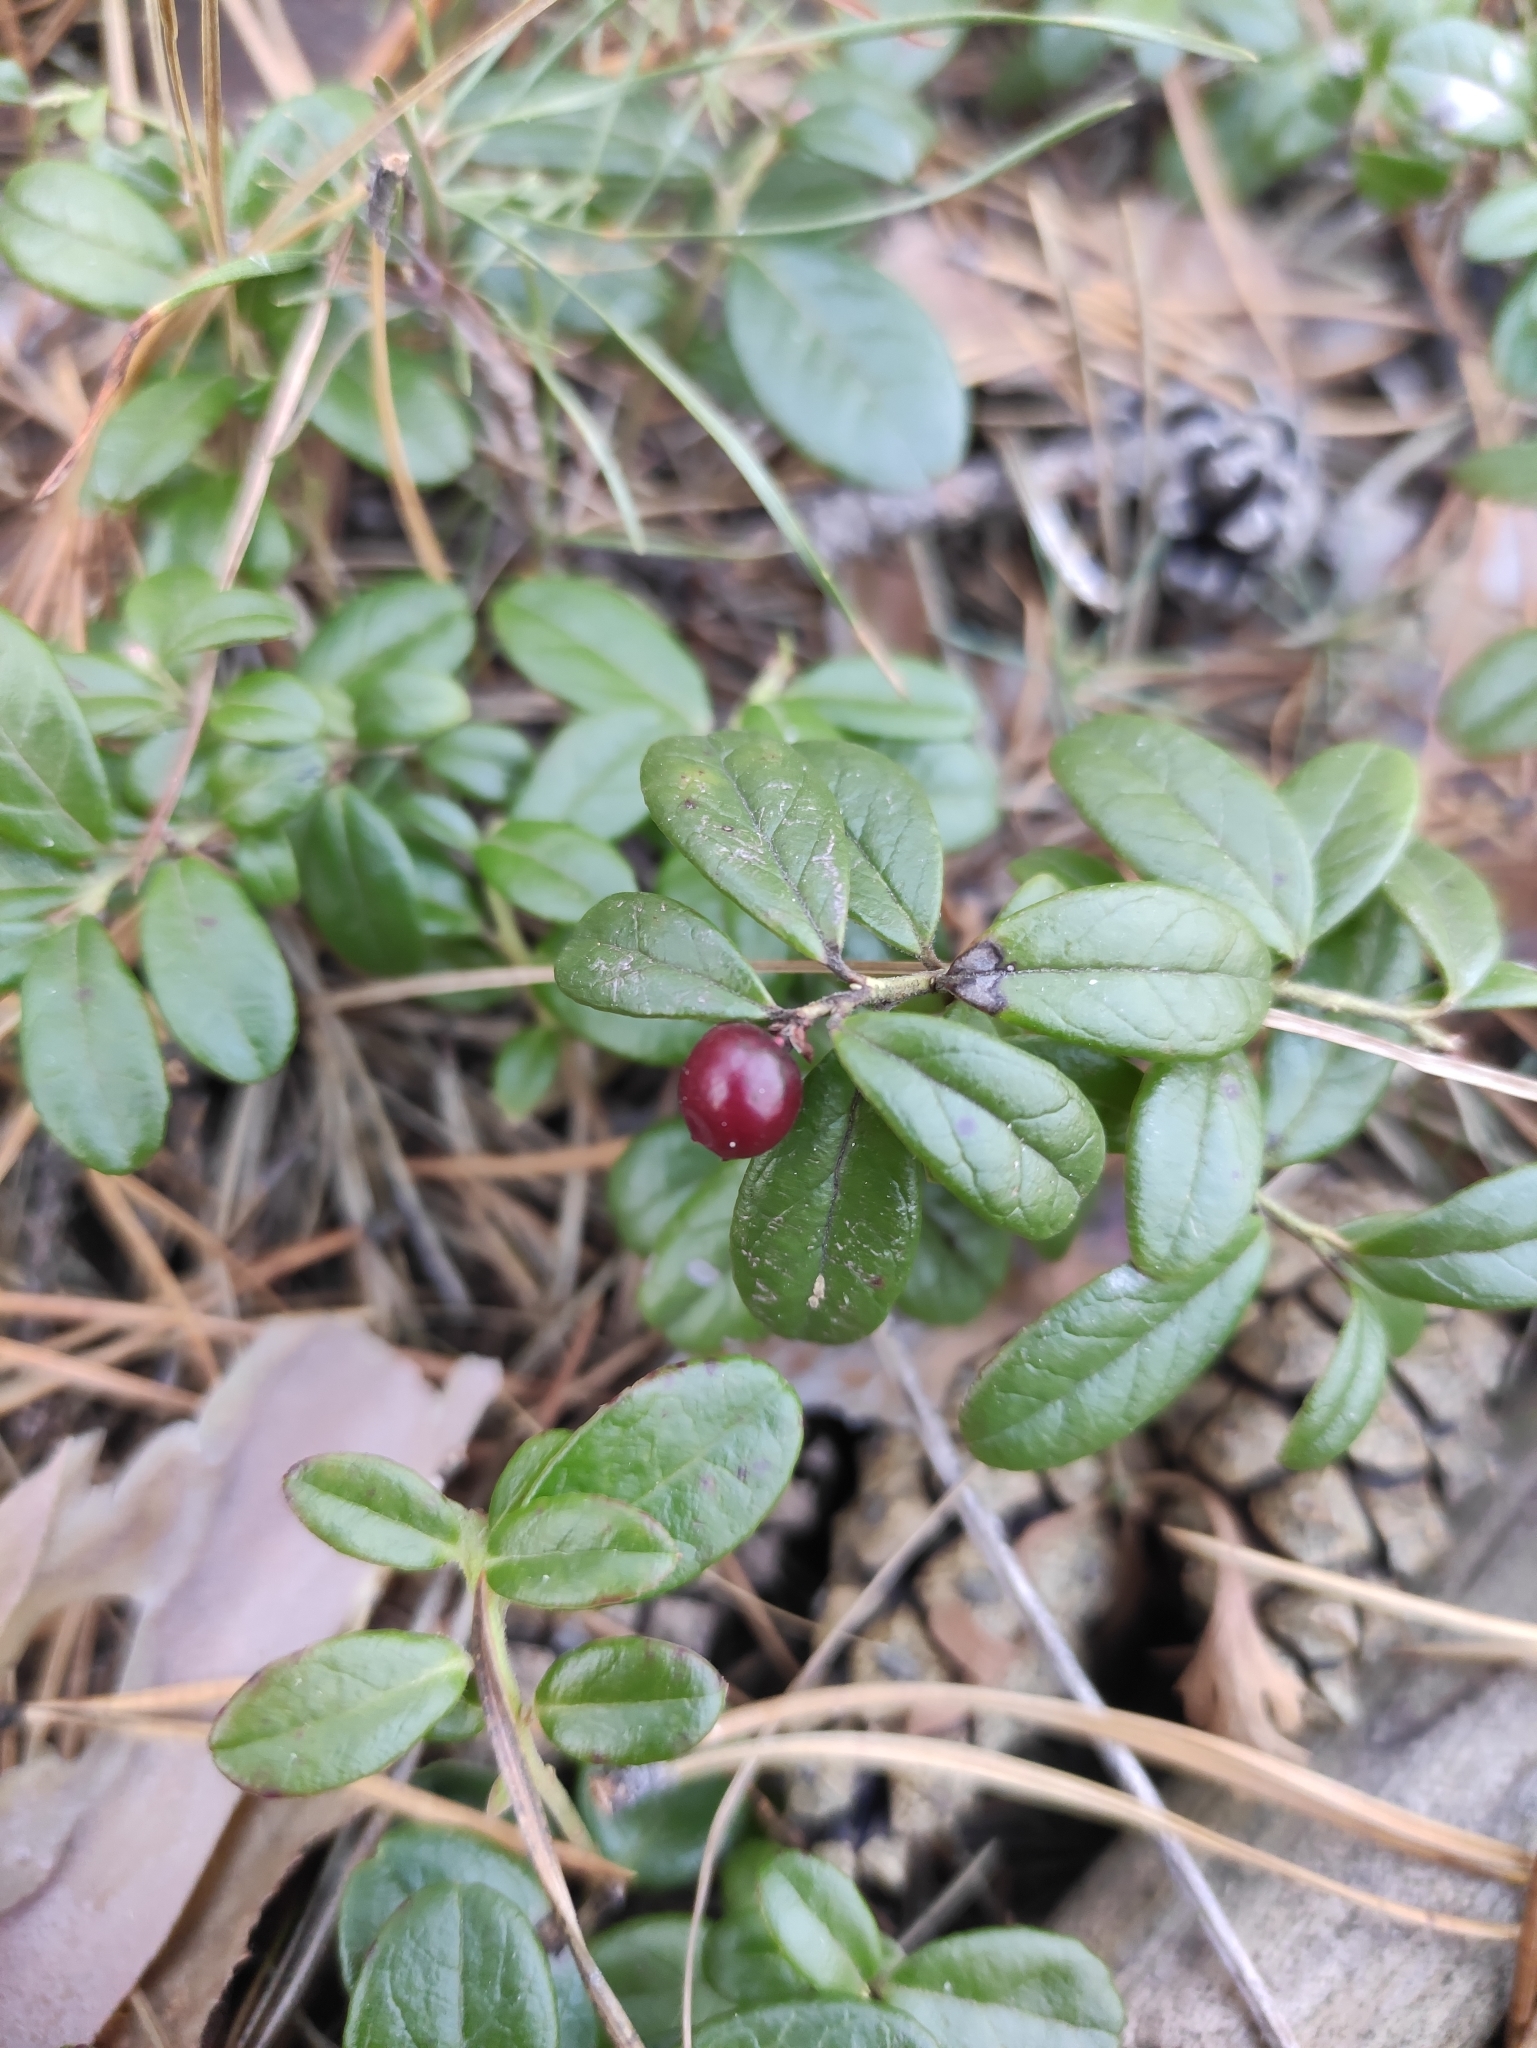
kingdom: Plantae
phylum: Tracheophyta
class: Magnoliopsida
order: Ericales
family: Ericaceae
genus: Vaccinium
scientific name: Vaccinium vitis-idaea
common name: Cowberry
